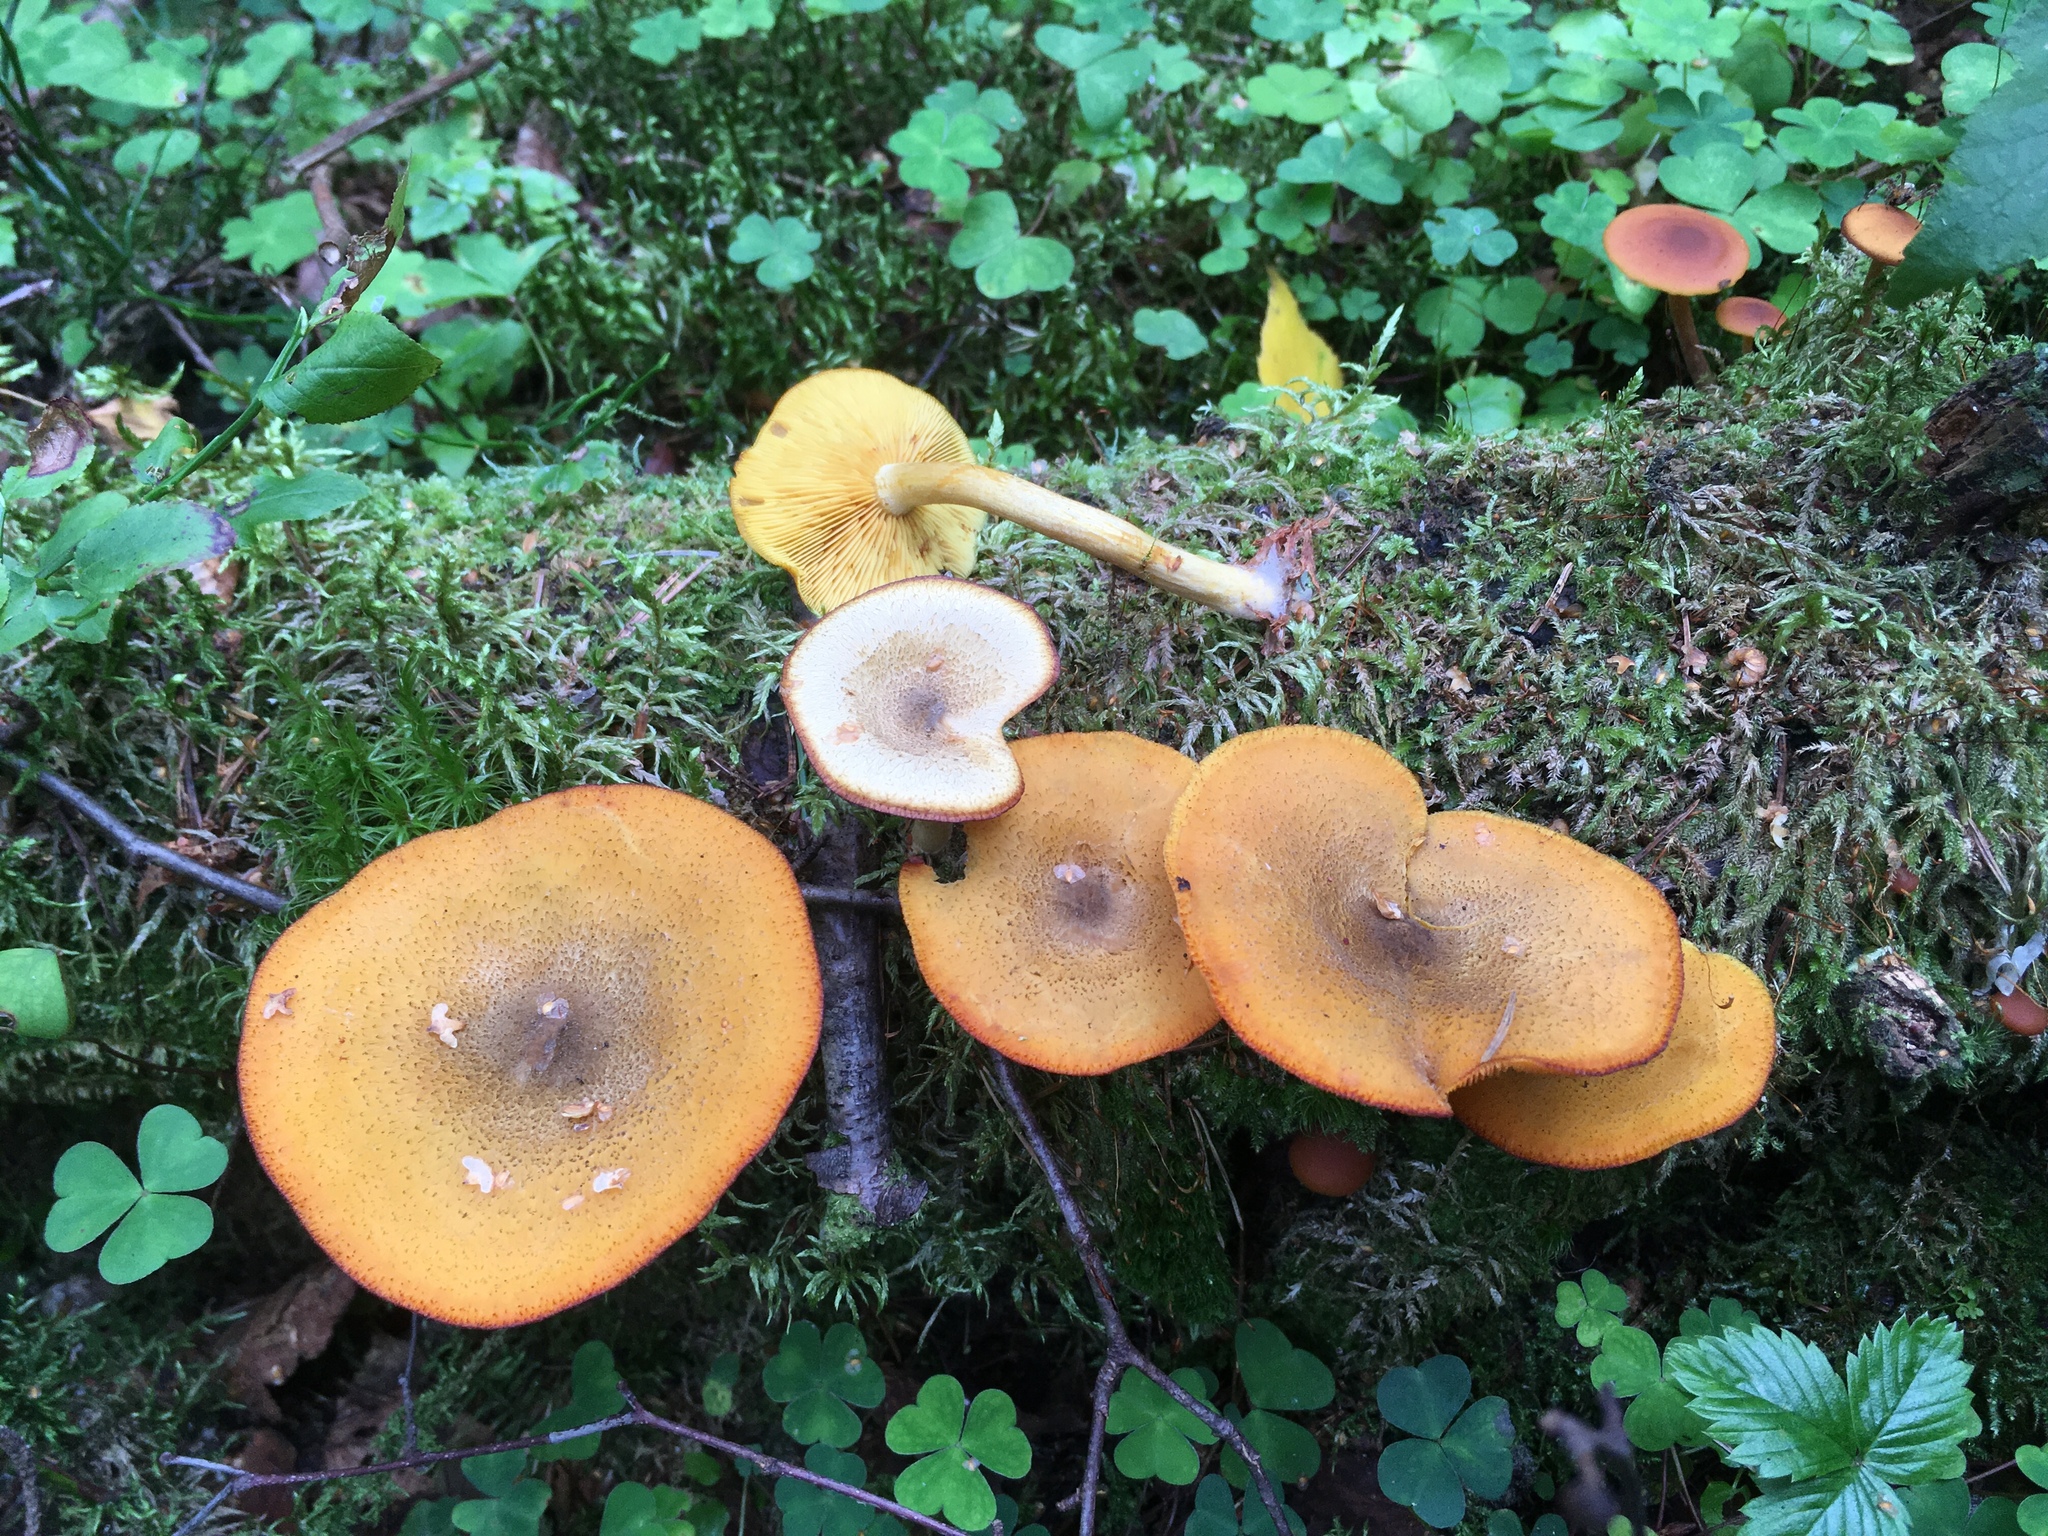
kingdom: Fungi
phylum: Basidiomycota
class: Agaricomycetes
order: Agaricales
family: Tricholomataceae
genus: Tricholomopsis
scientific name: Tricholomopsis decora
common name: Prunes and custard
